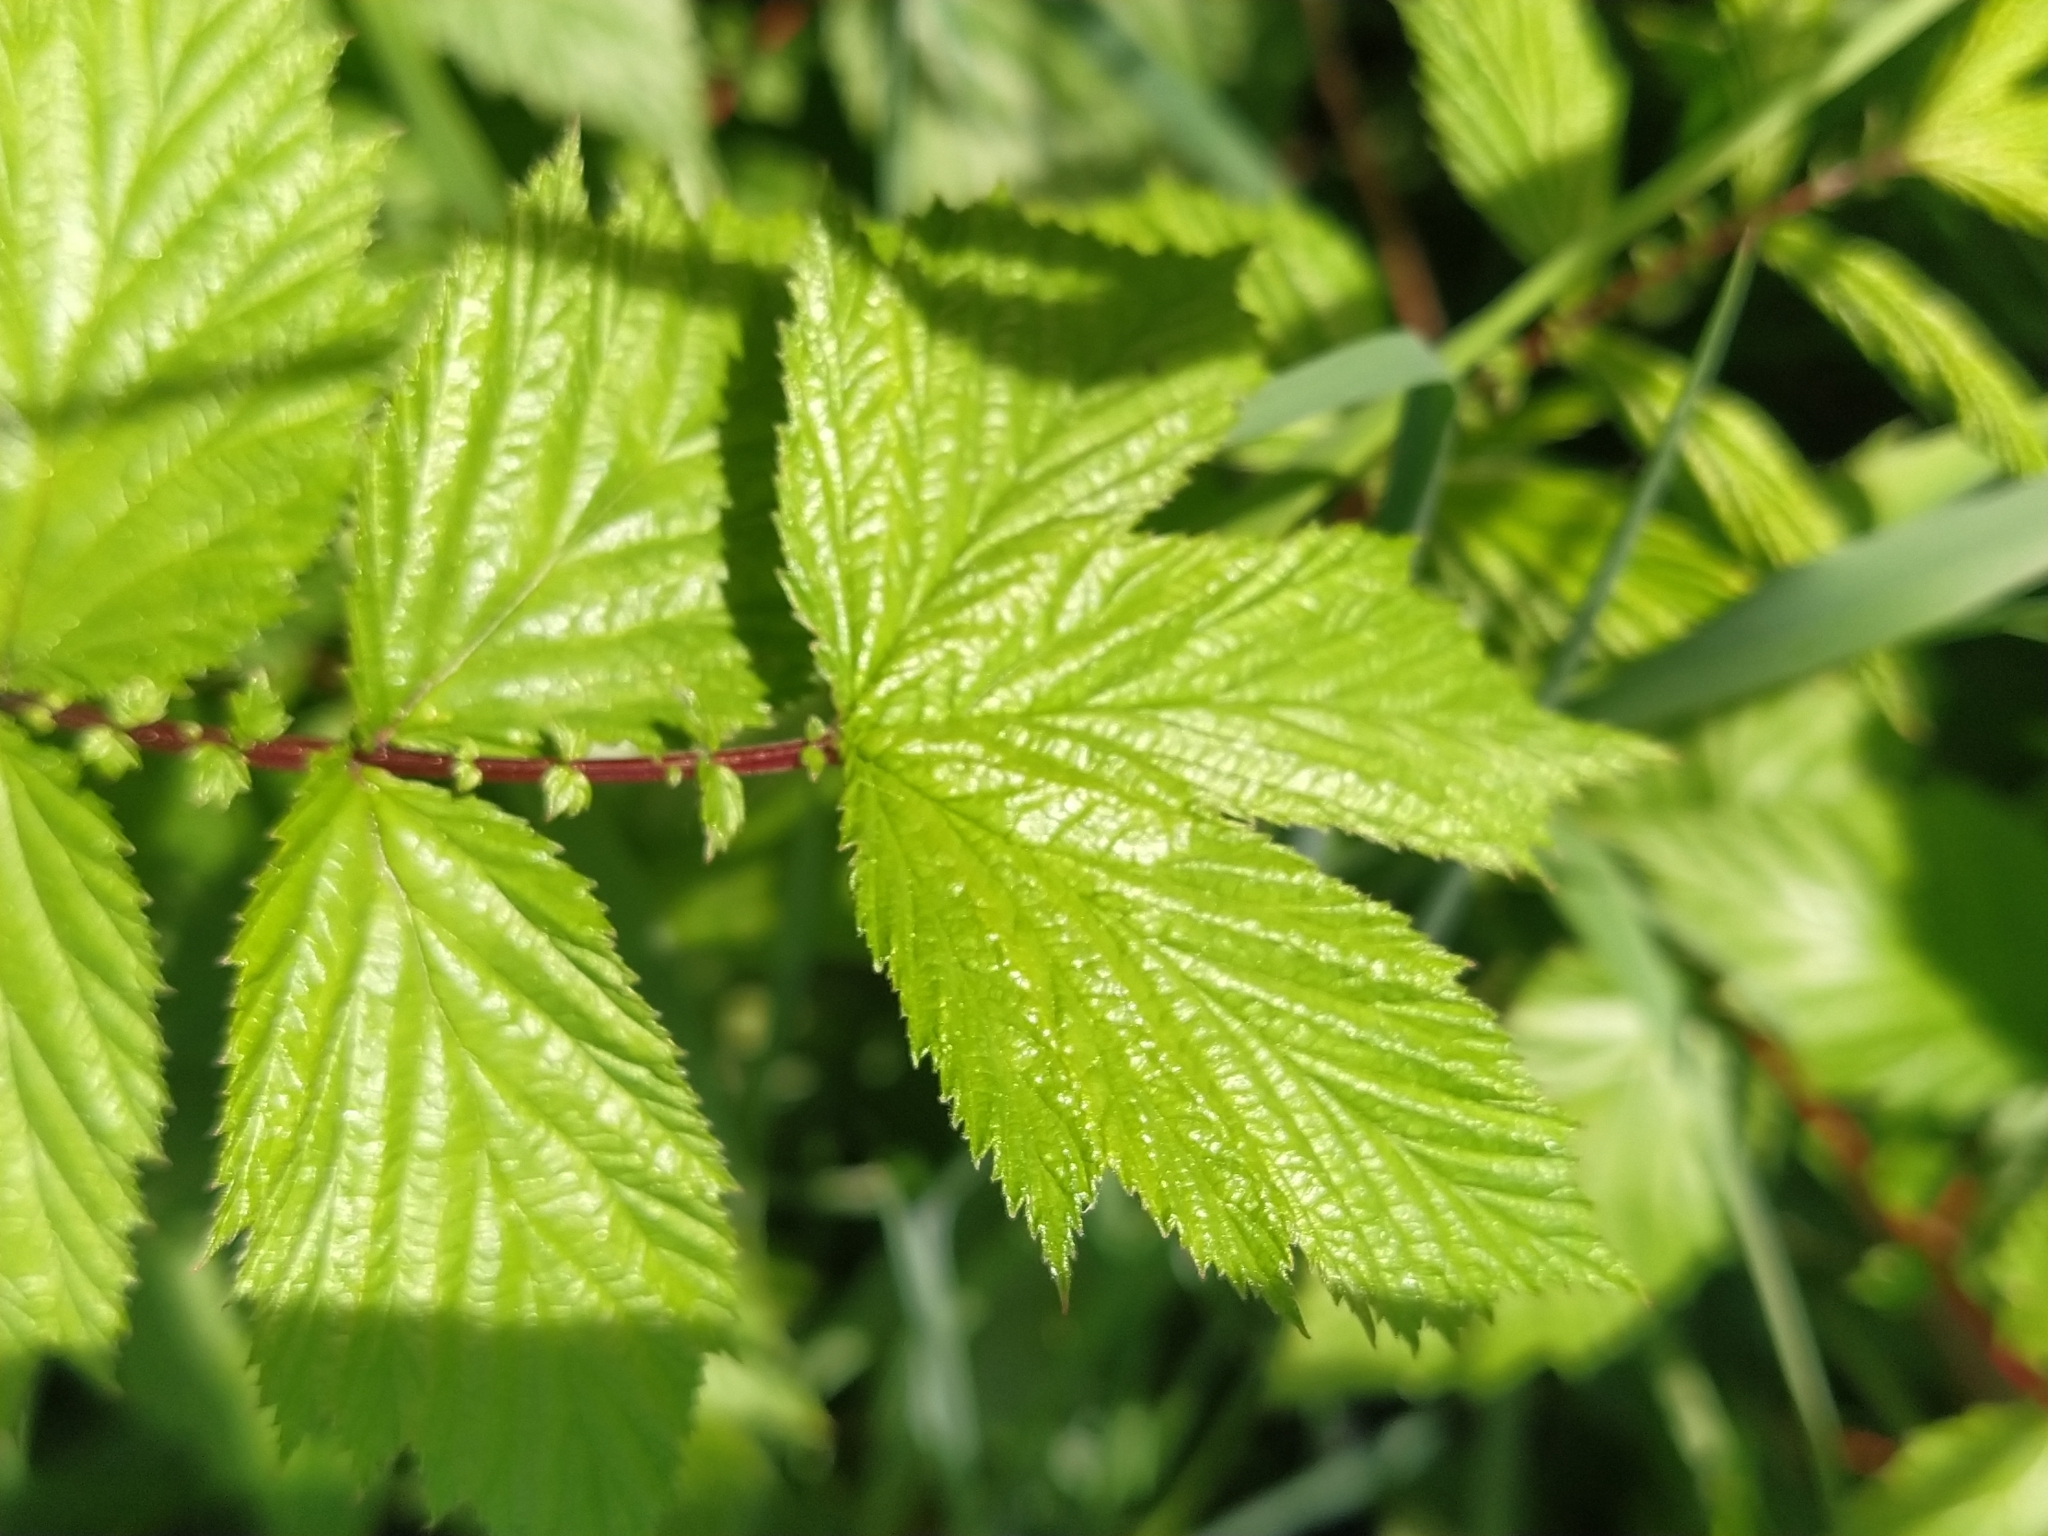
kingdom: Plantae
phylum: Tracheophyta
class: Magnoliopsida
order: Rosales
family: Rosaceae
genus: Filipendula
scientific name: Filipendula ulmaria
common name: Meadowsweet
